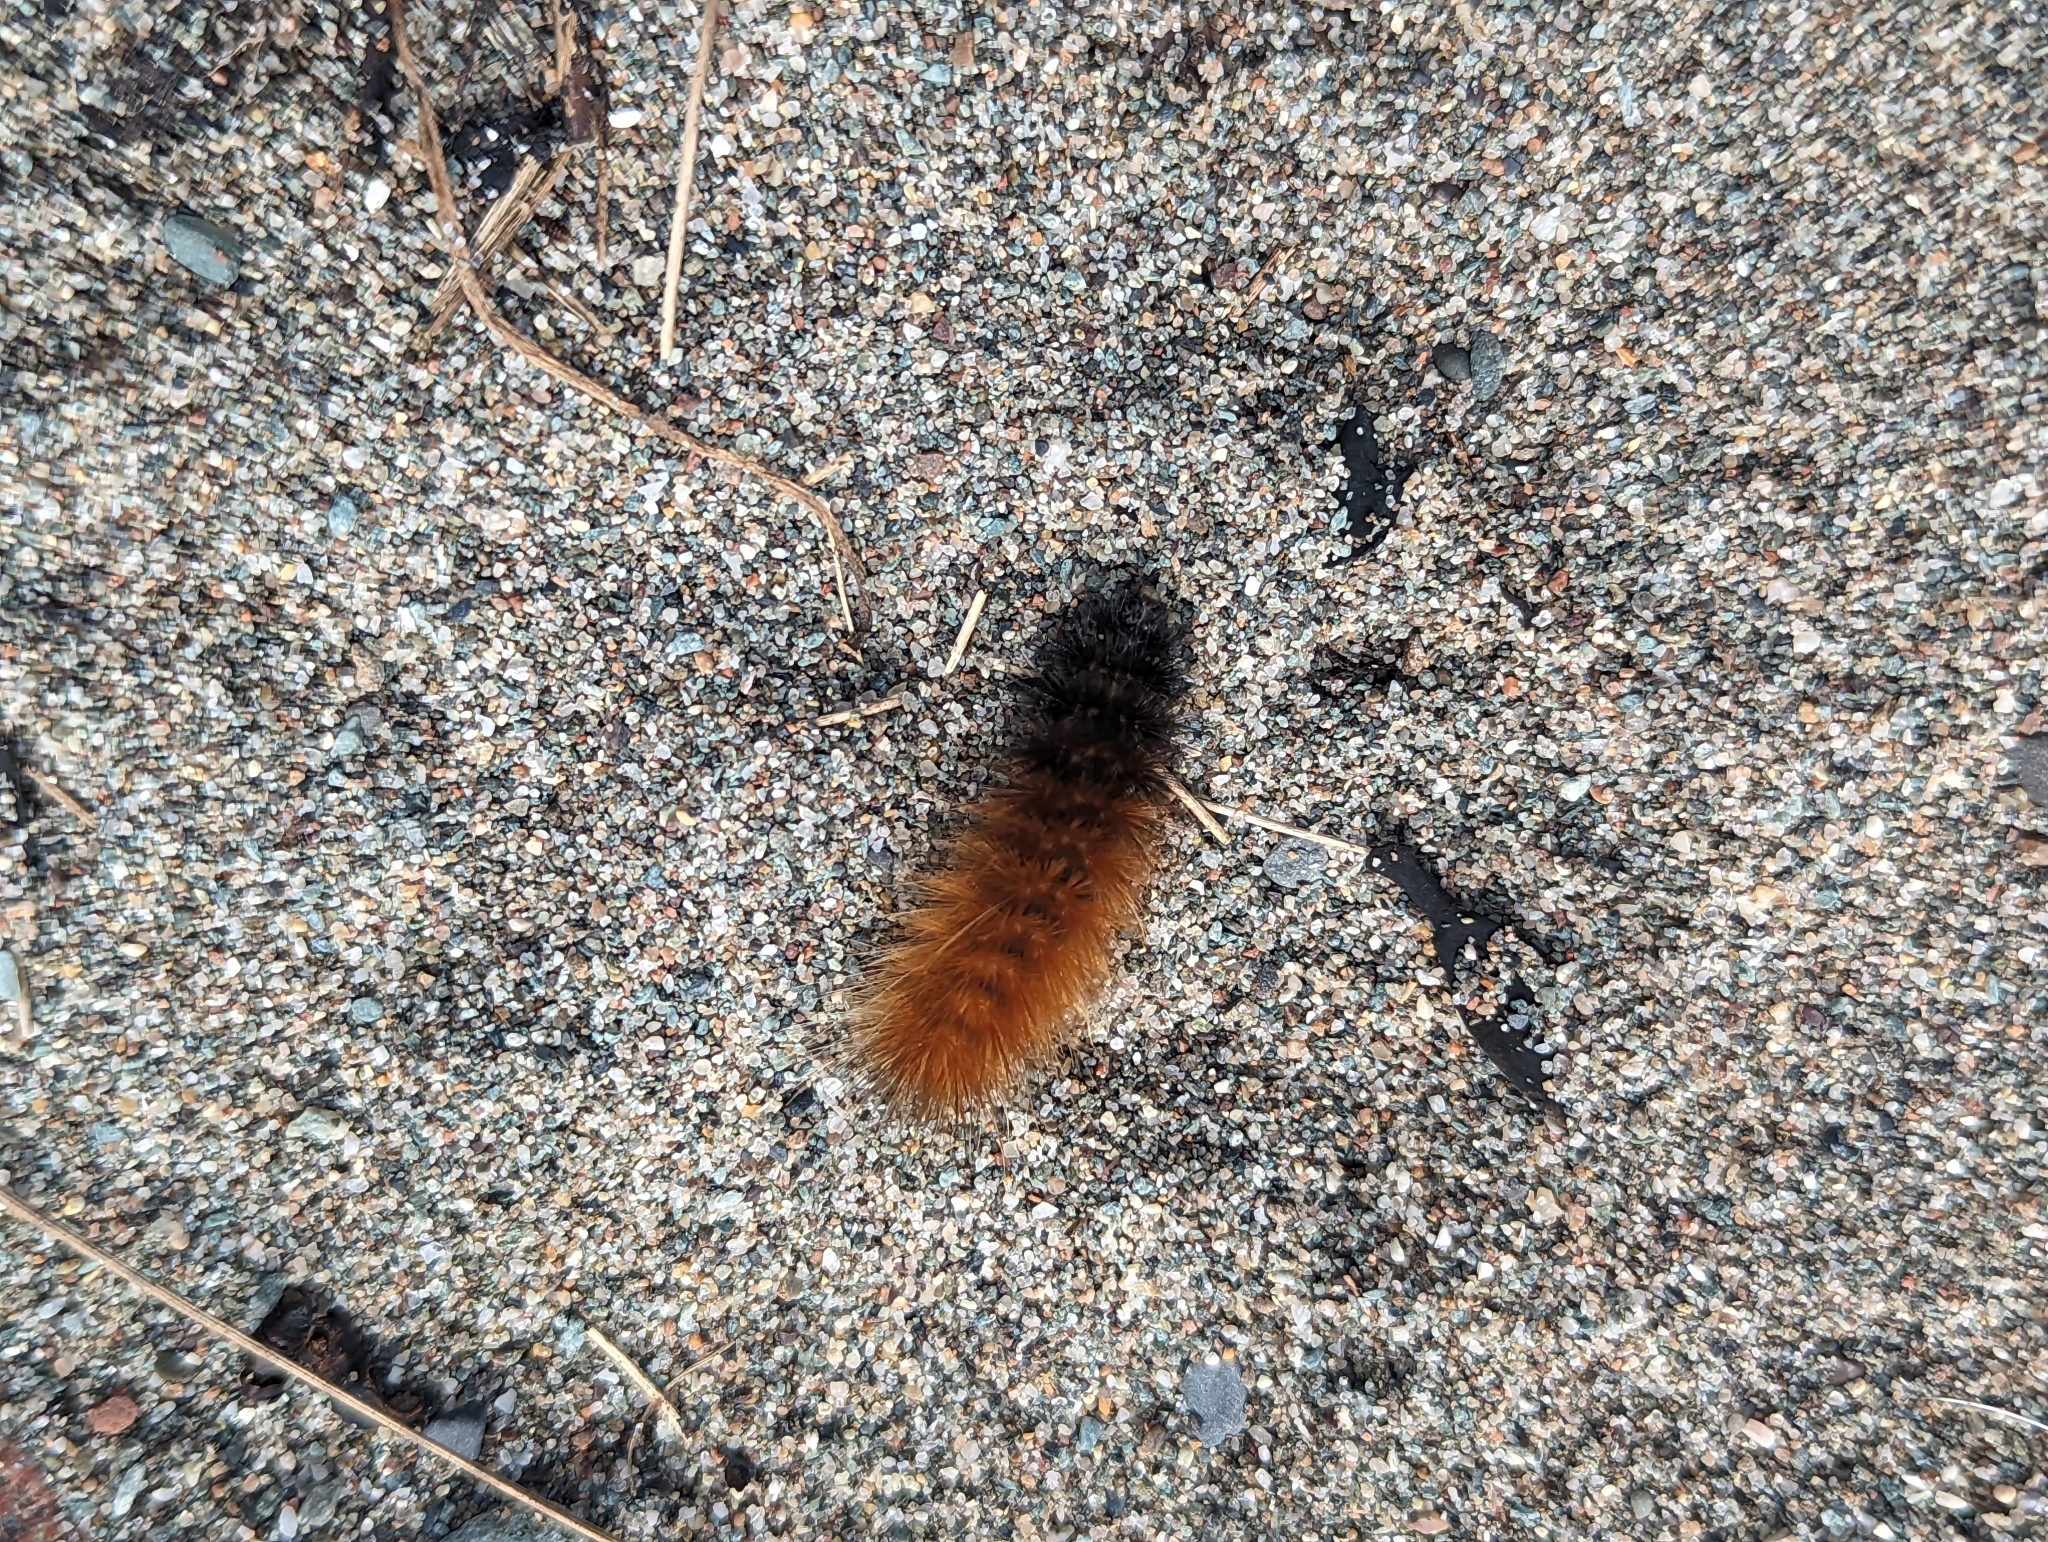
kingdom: Animalia
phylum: Arthropoda
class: Insecta
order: Lepidoptera
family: Erebidae
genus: Spilosoma
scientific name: Spilosoma virginica
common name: Virginia tiger moth
